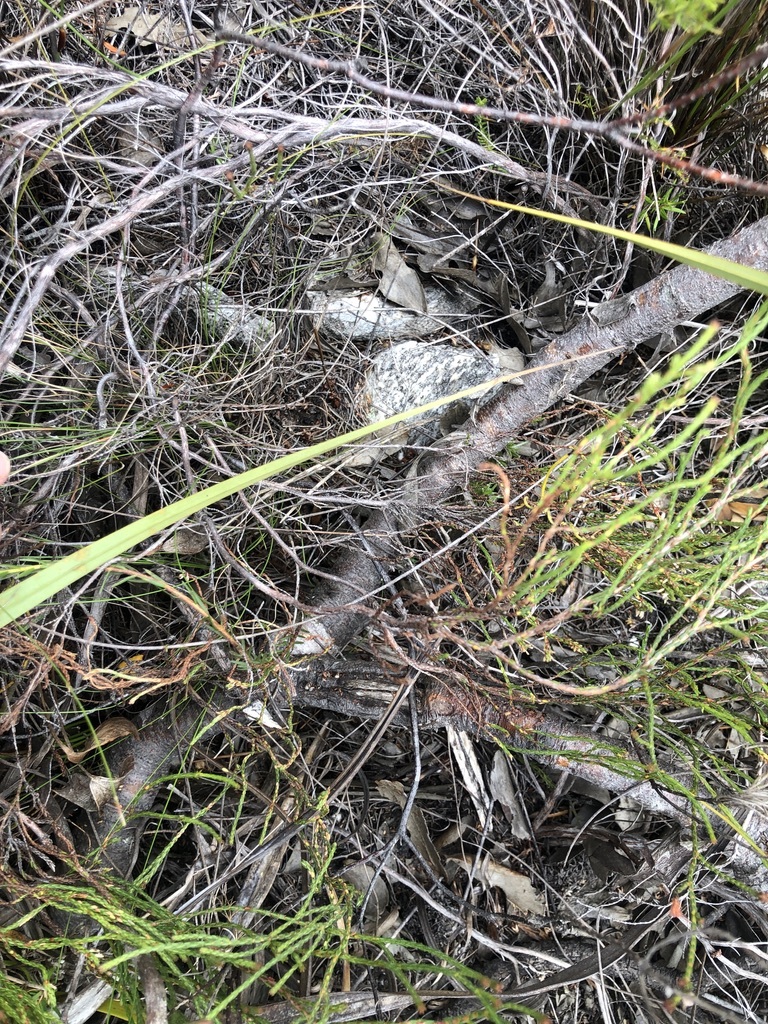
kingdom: Plantae
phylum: Tracheophyta
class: Magnoliopsida
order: Proteales
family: Proteaceae
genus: Leucospermum
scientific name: Leucospermum patersonii
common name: False tree pincushion
